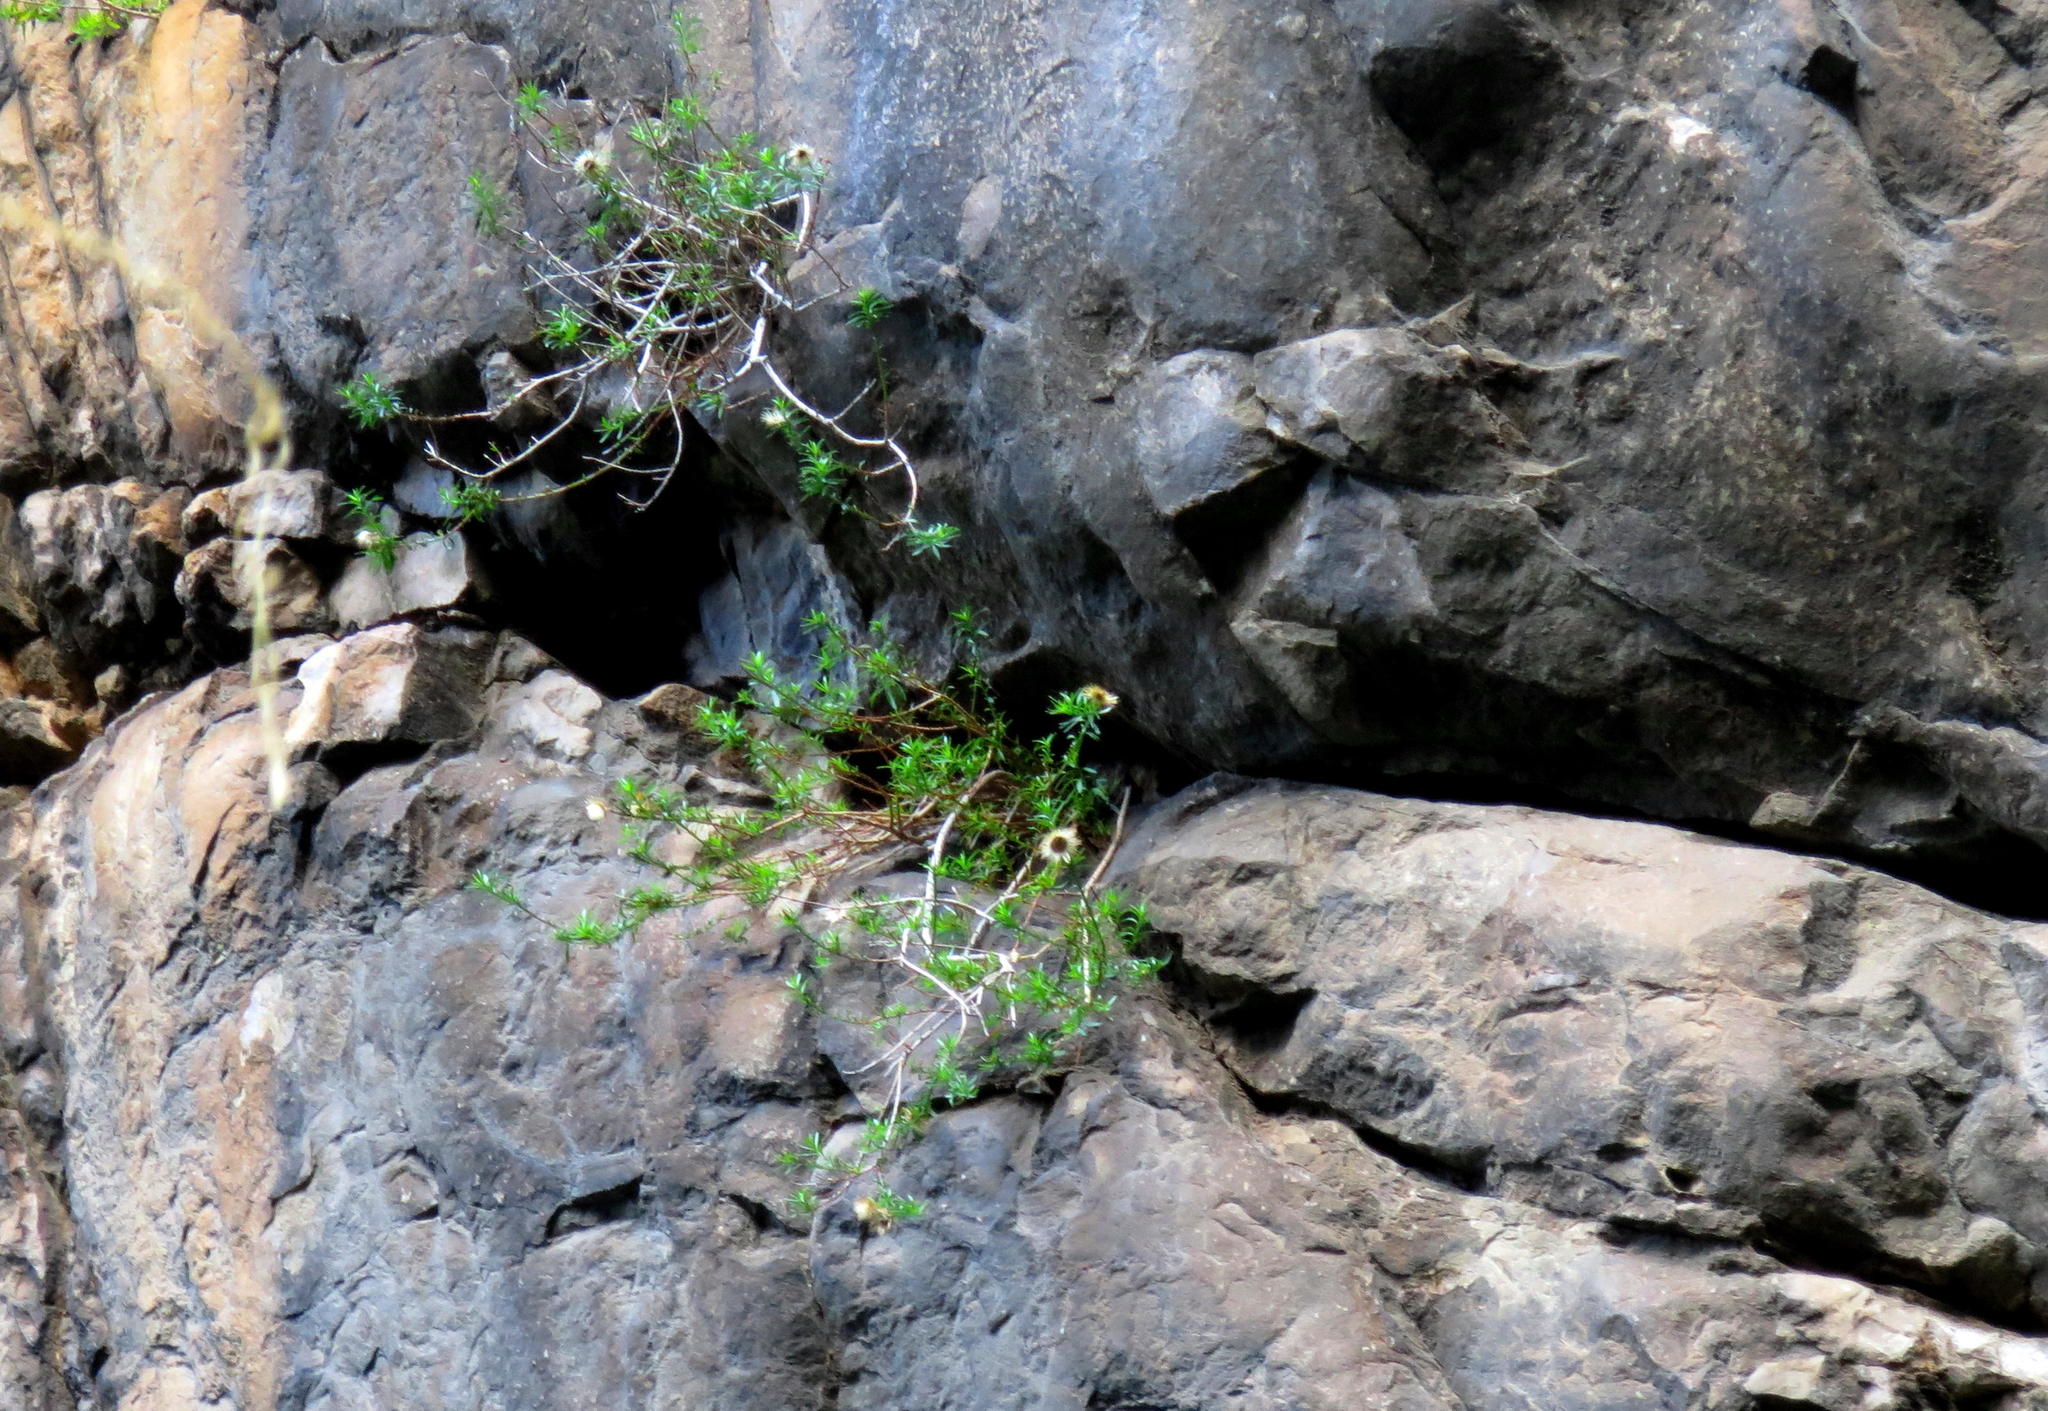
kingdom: Plantae
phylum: Tracheophyta
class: Magnoliopsida
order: Asterales
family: Asteraceae
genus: Pentatrichia
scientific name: Pentatrichia integra
